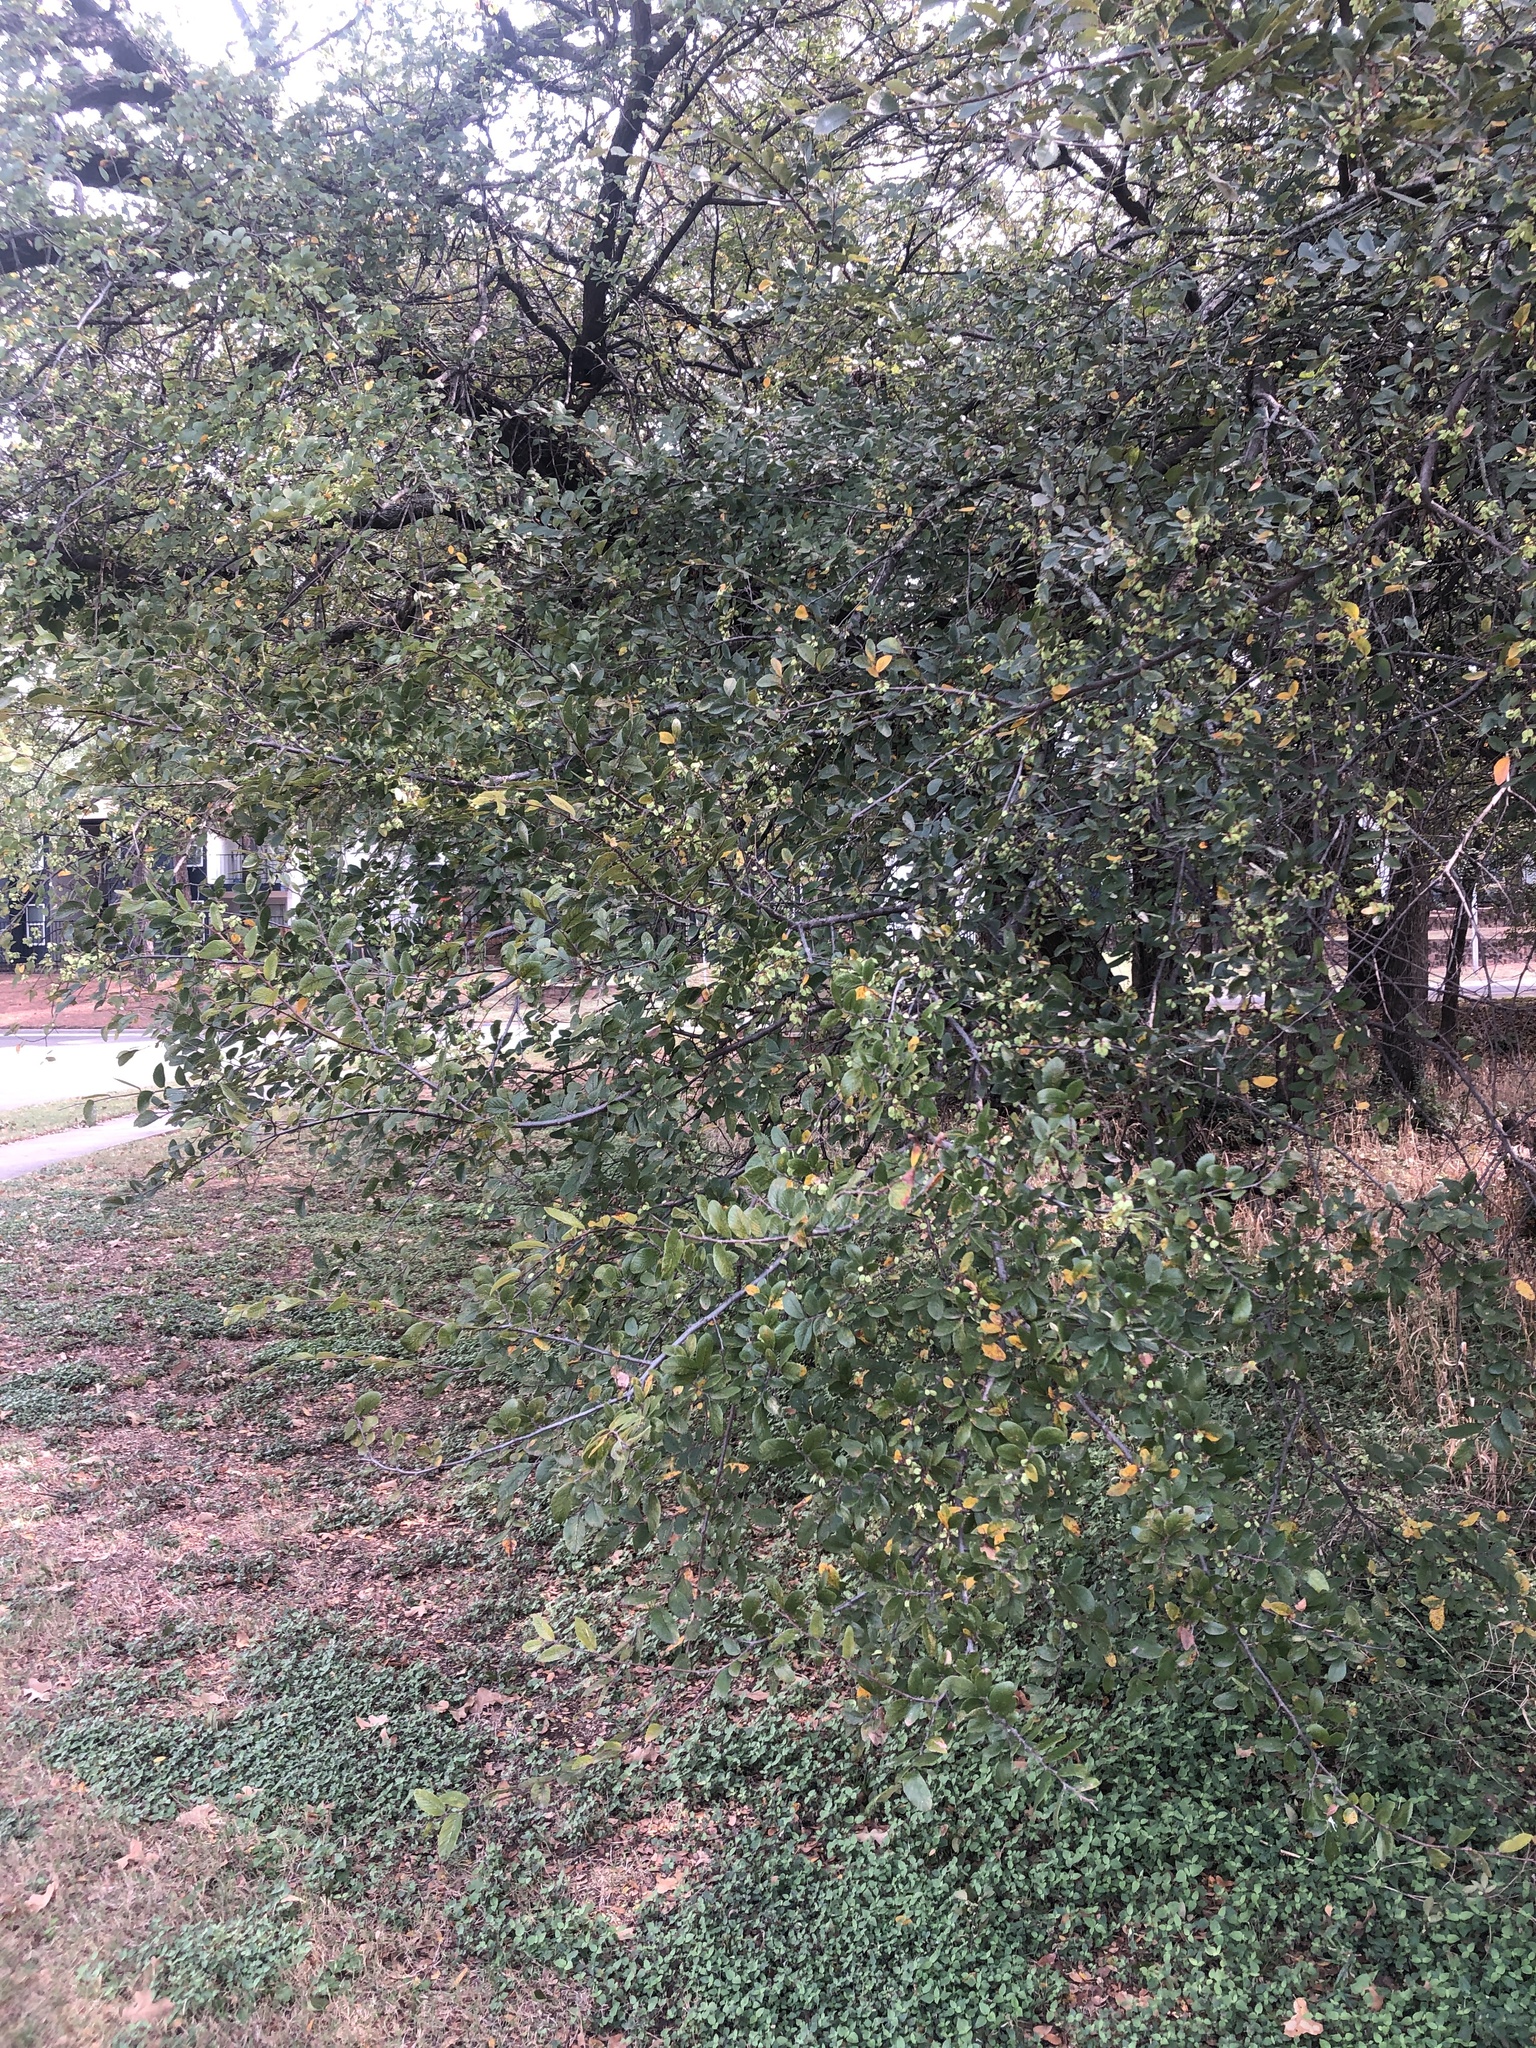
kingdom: Plantae
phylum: Tracheophyta
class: Magnoliopsida
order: Rosales
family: Ulmaceae
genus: Ulmus
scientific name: Ulmus crassifolia
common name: Basket elm
